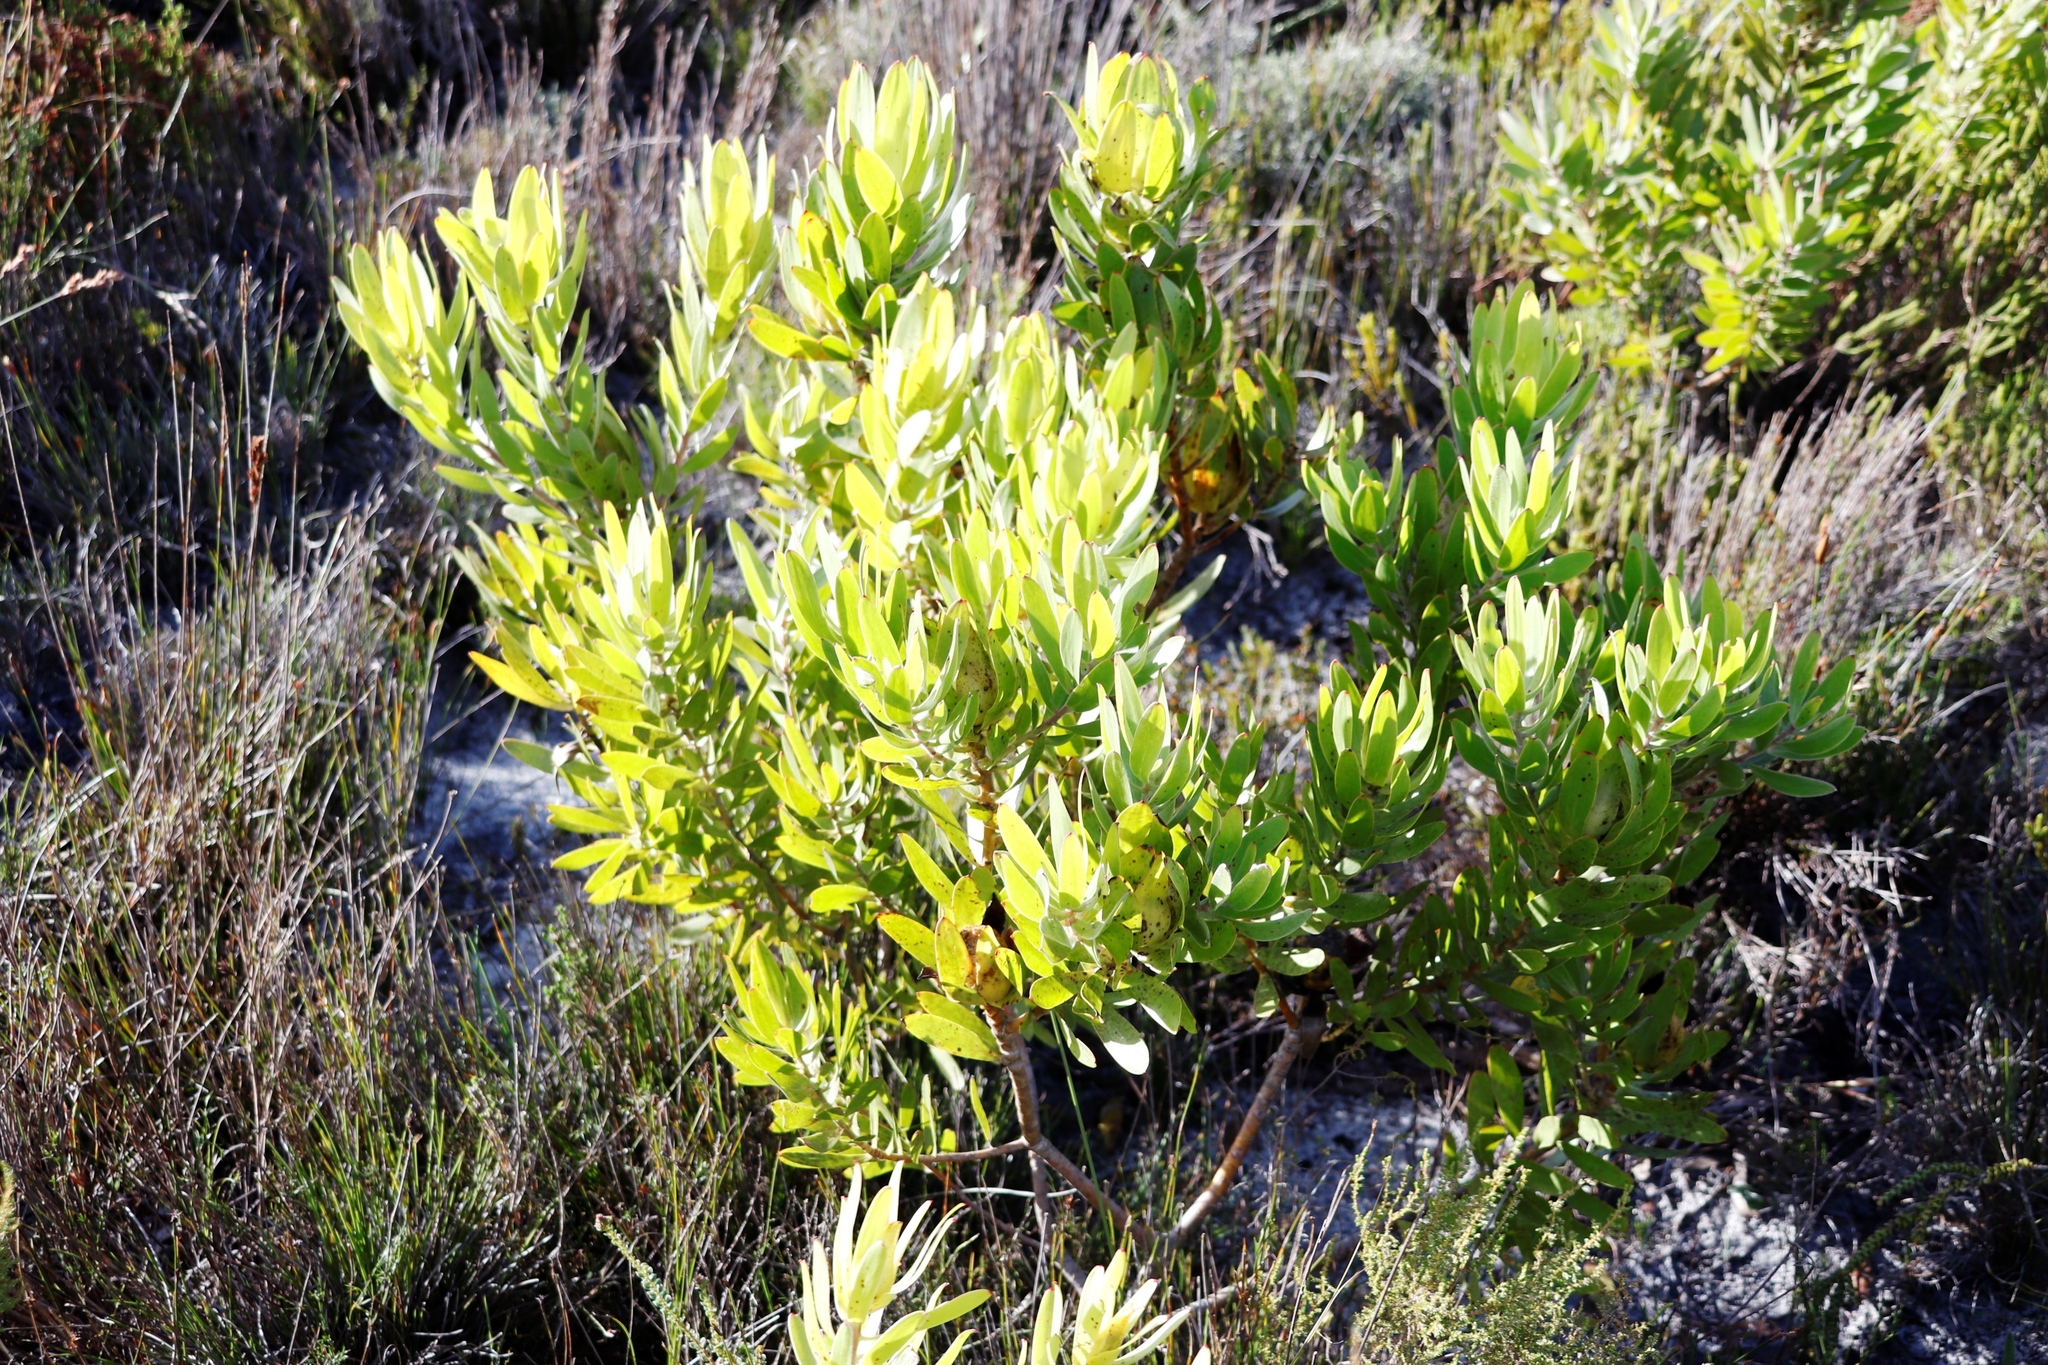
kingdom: Plantae
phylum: Tracheophyta
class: Magnoliopsida
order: Proteales
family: Proteaceae
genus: Leucadendron
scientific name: Leucadendron laureolum
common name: Golden sunshinebush
